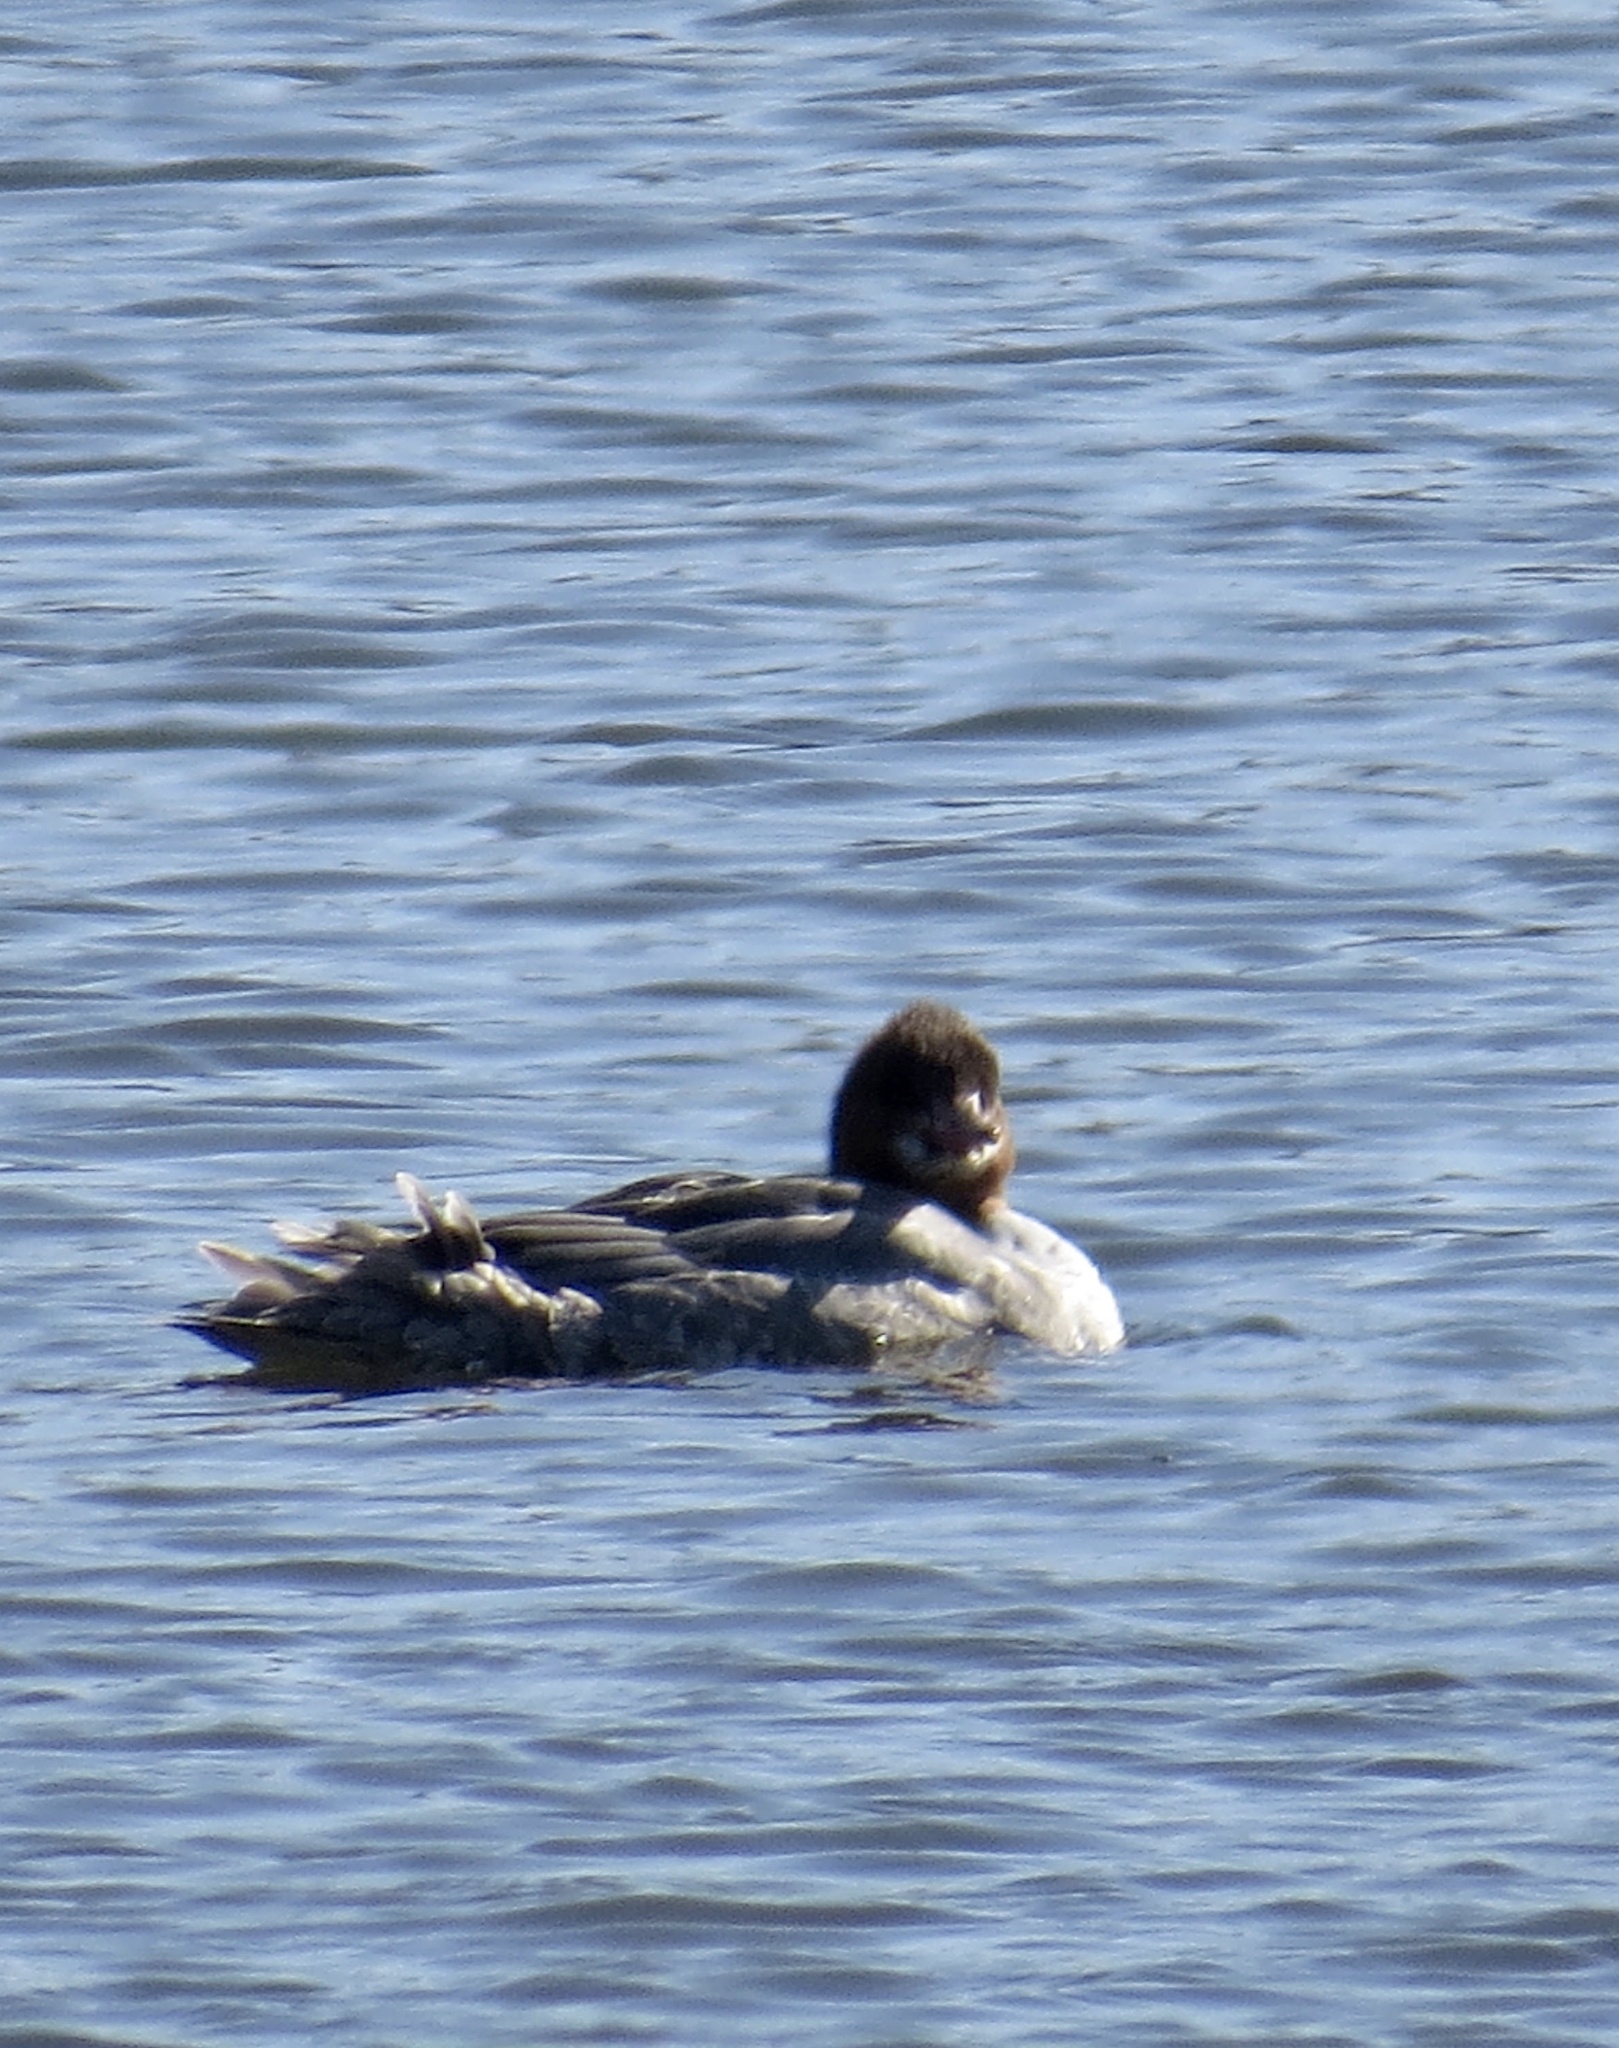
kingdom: Animalia
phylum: Chordata
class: Aves
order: Anseriformes
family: Anatidae
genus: Mergus
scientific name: Mergus merganser
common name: Common merganser
